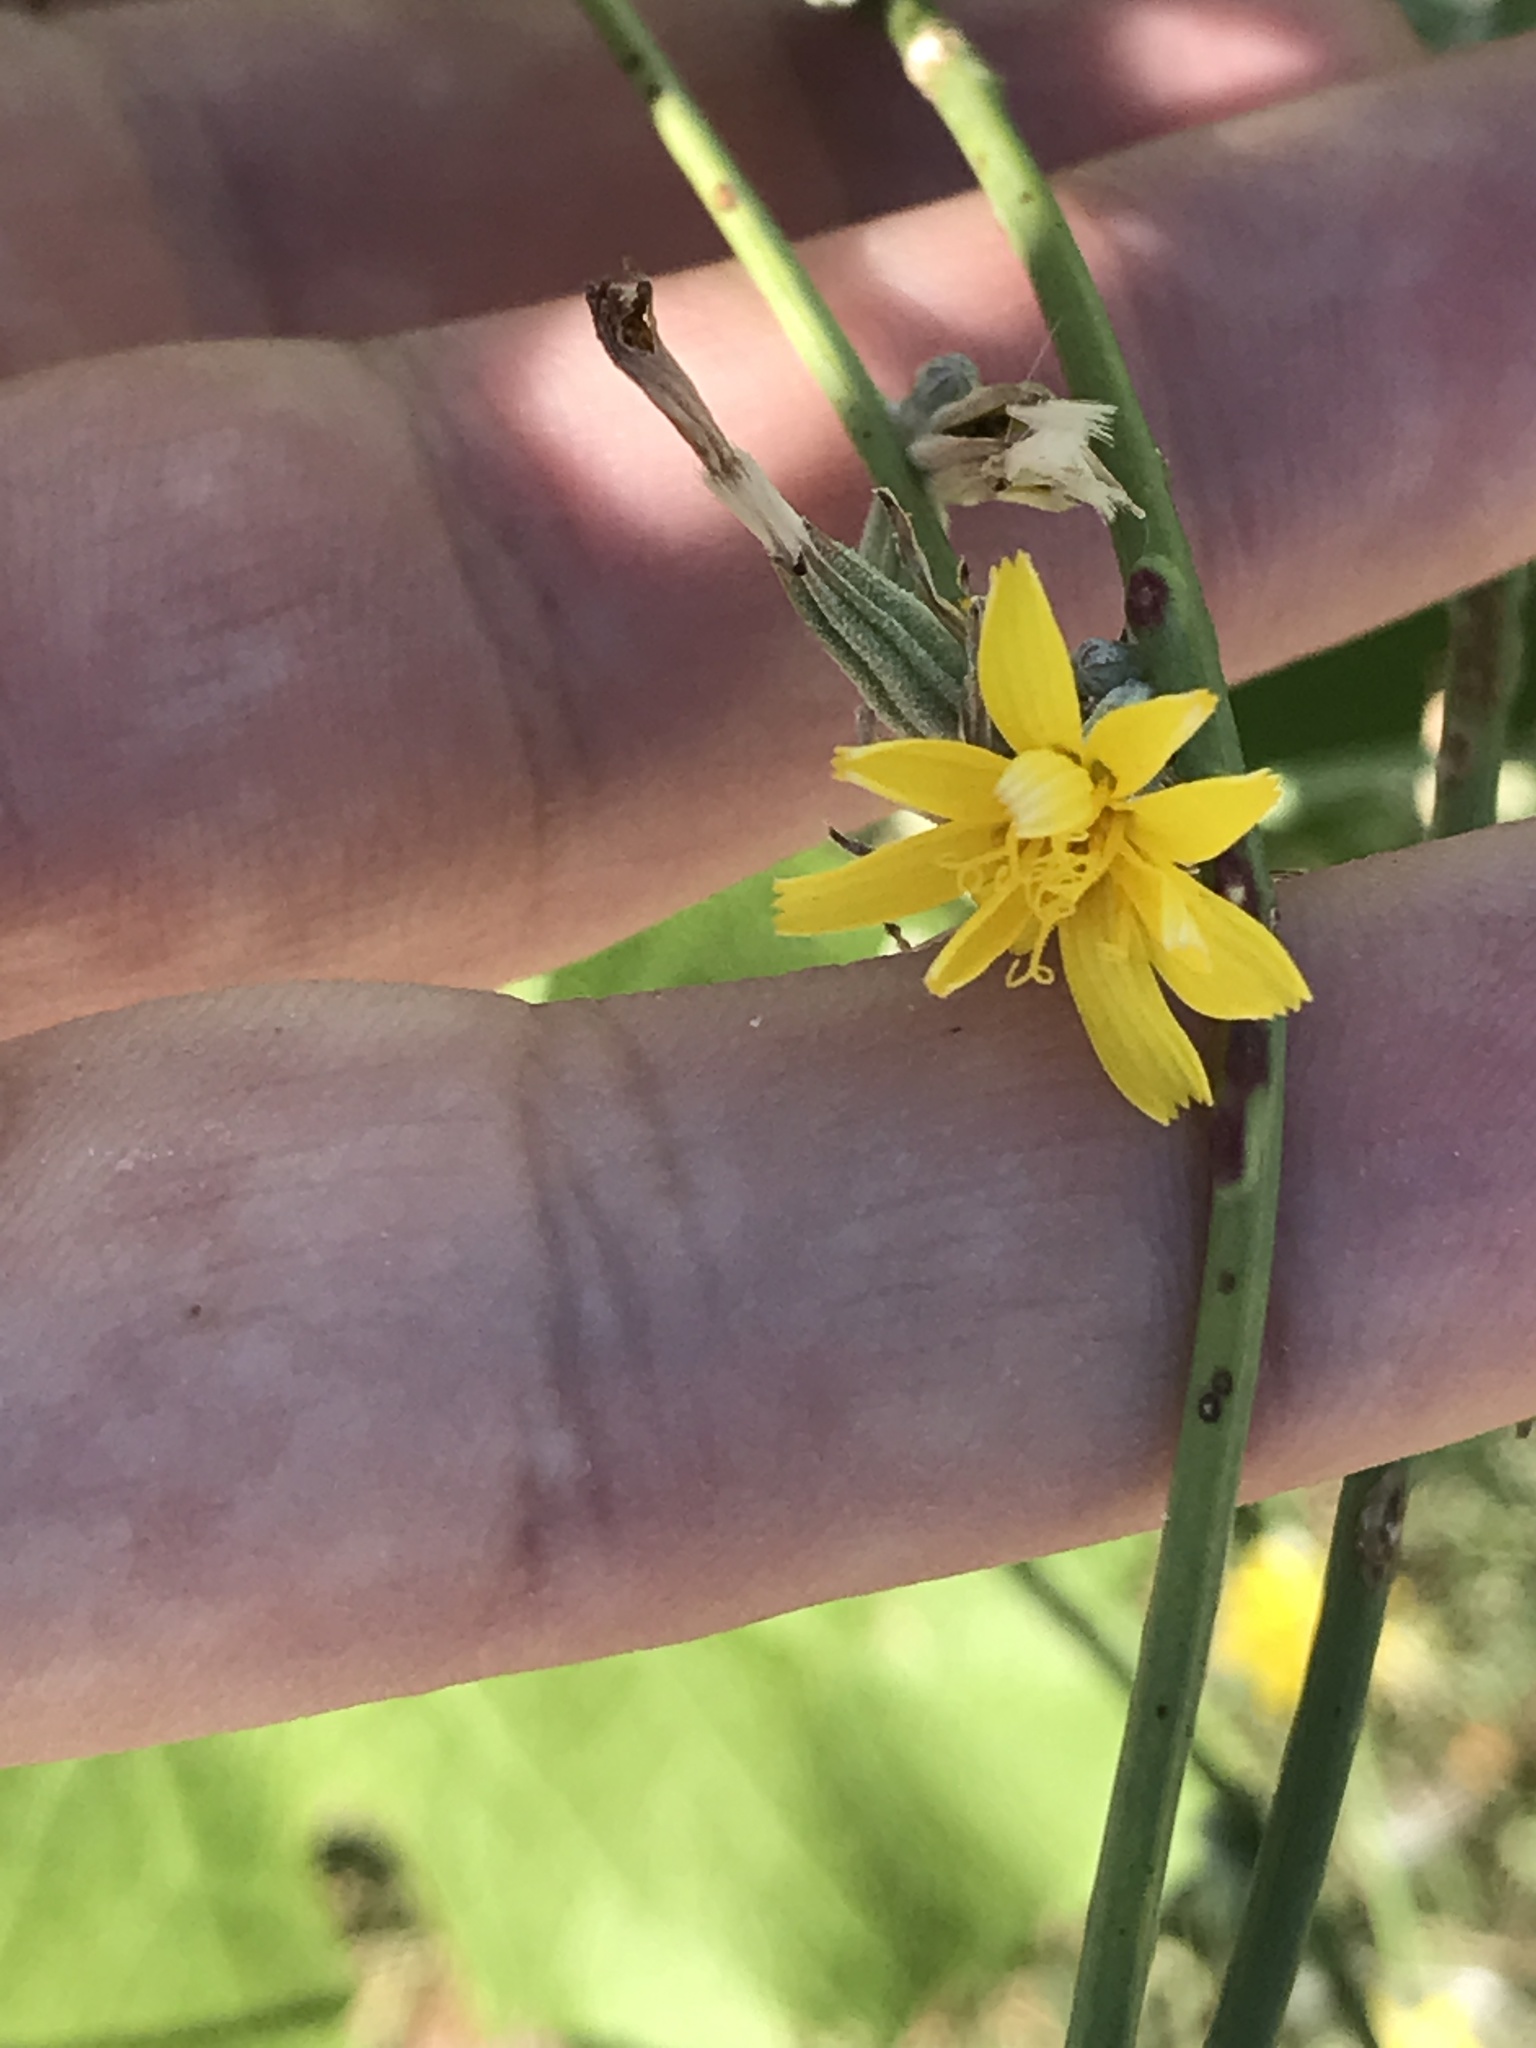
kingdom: Plantae
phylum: Tracheophyta
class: Magnoliopsida
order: Asterales
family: Asteraceae
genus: Chondrilla
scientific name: Chondrilla juncea
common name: Skeleton weed
